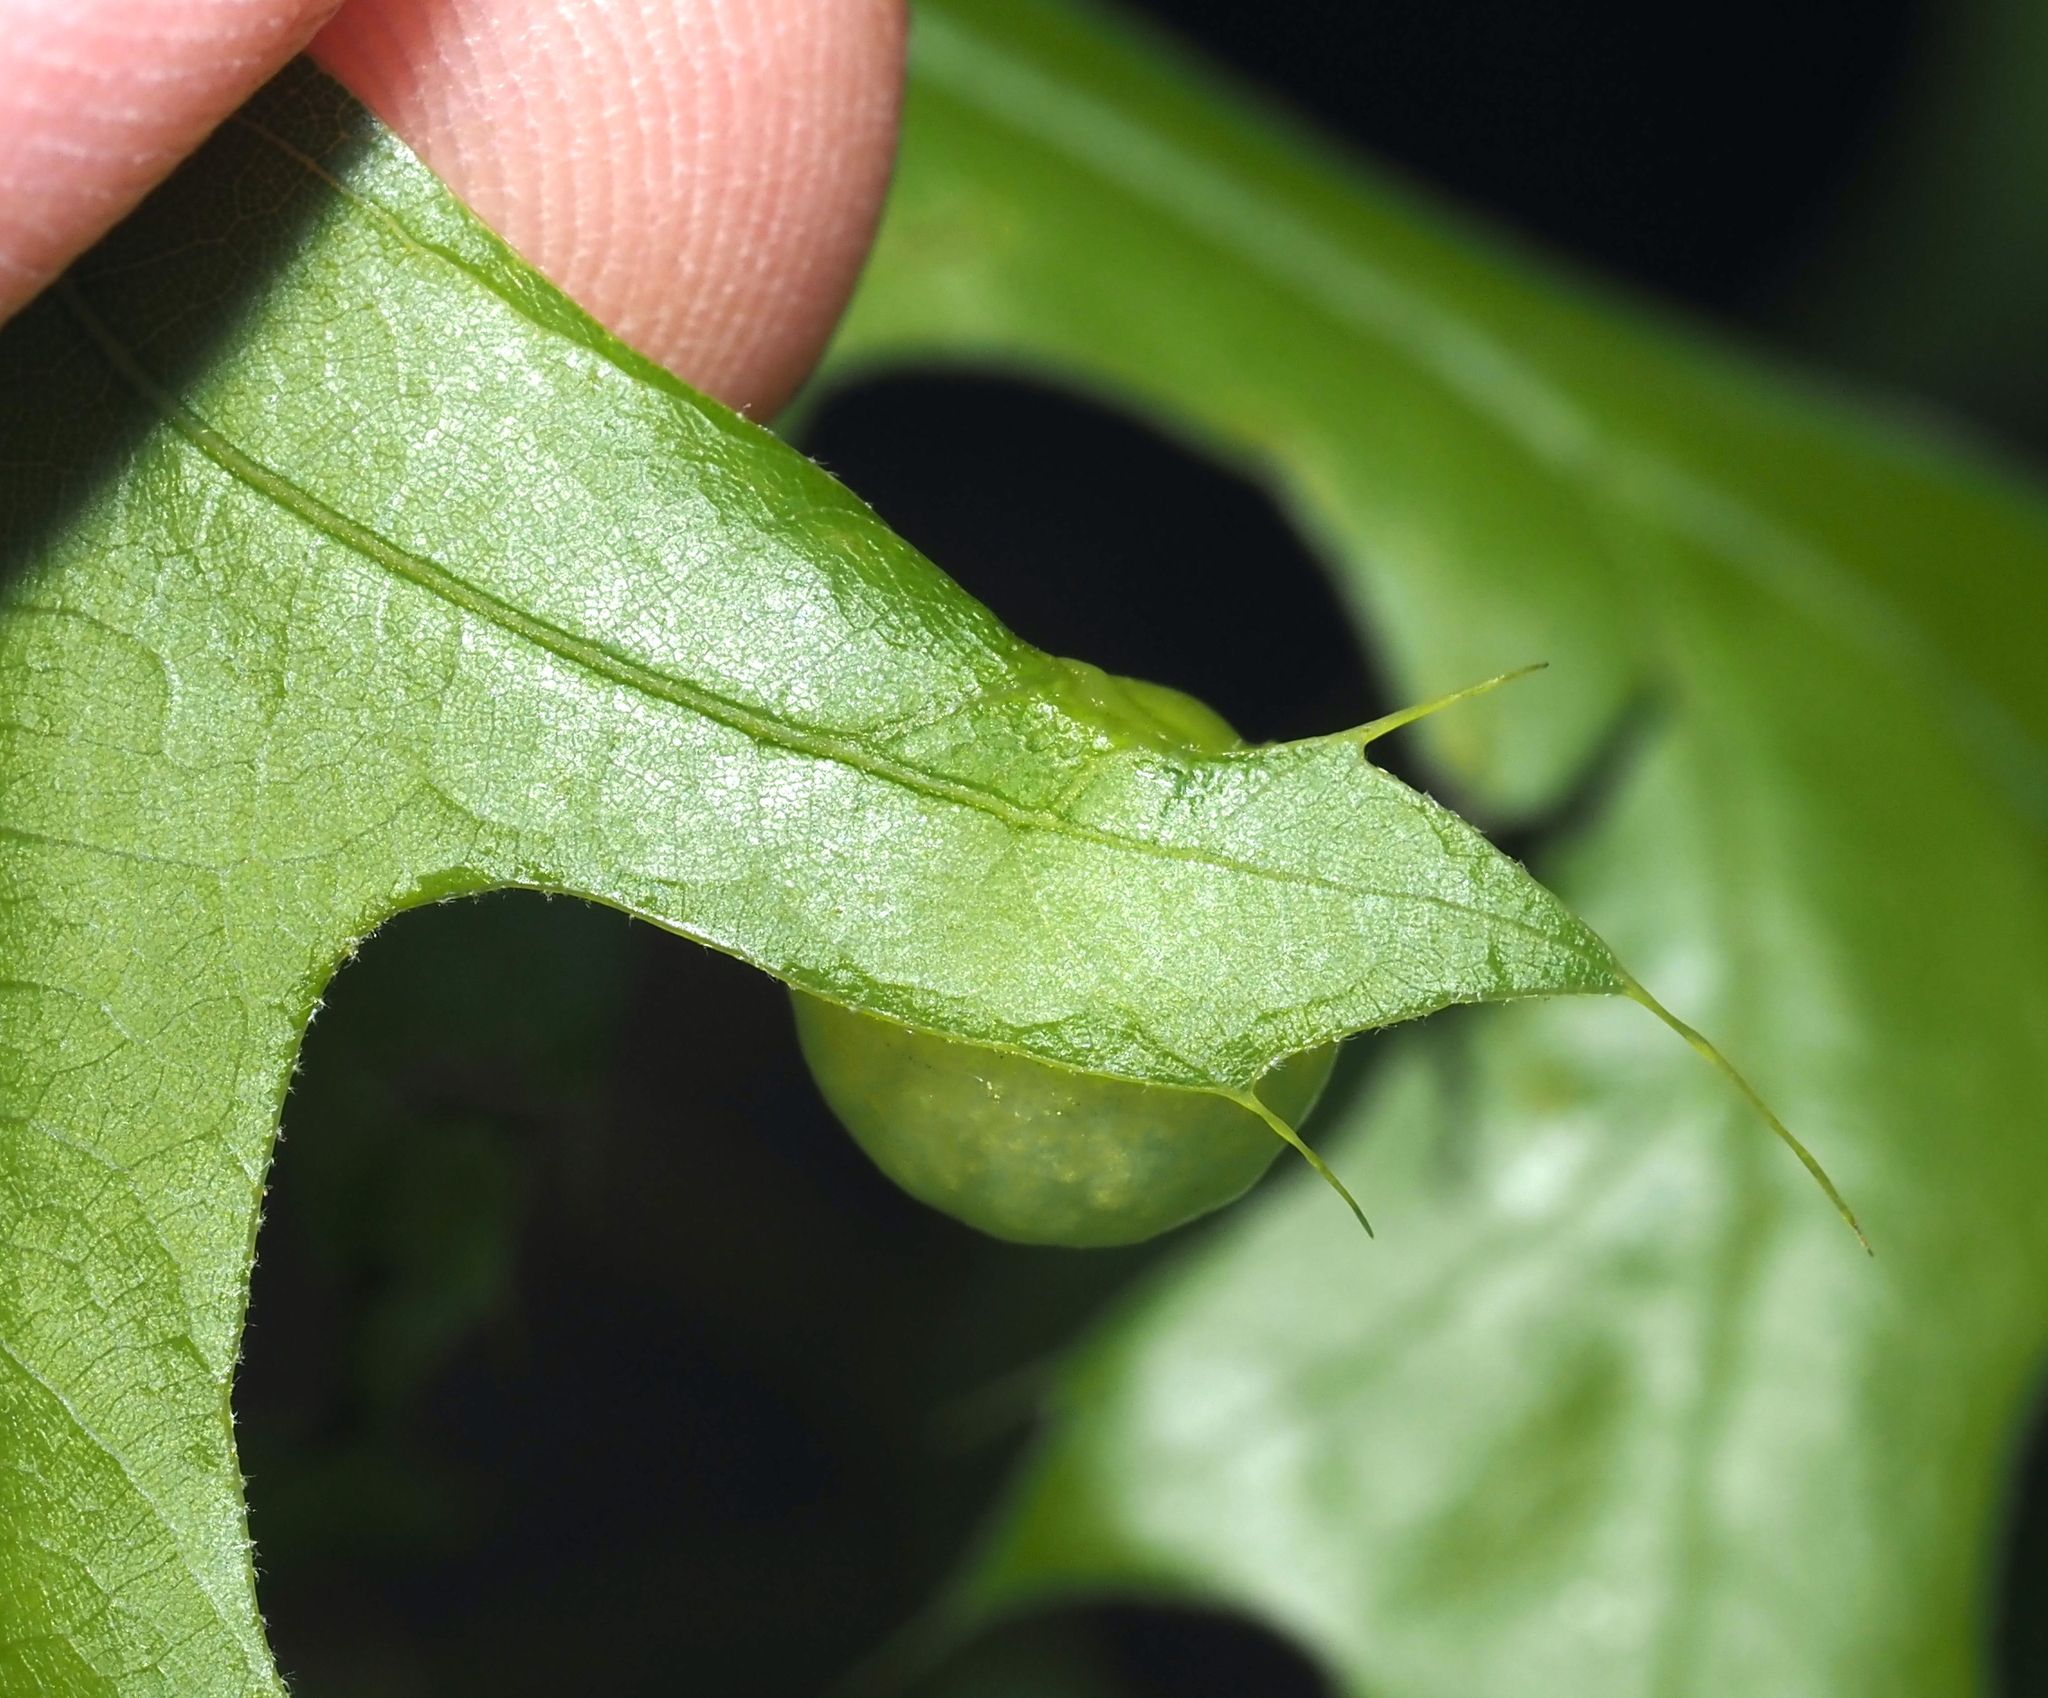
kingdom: Animalia
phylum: Arthropoda
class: Insecta
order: Hymenoptera
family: Cynipidae
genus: Amphibolips
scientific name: Amphibolips
